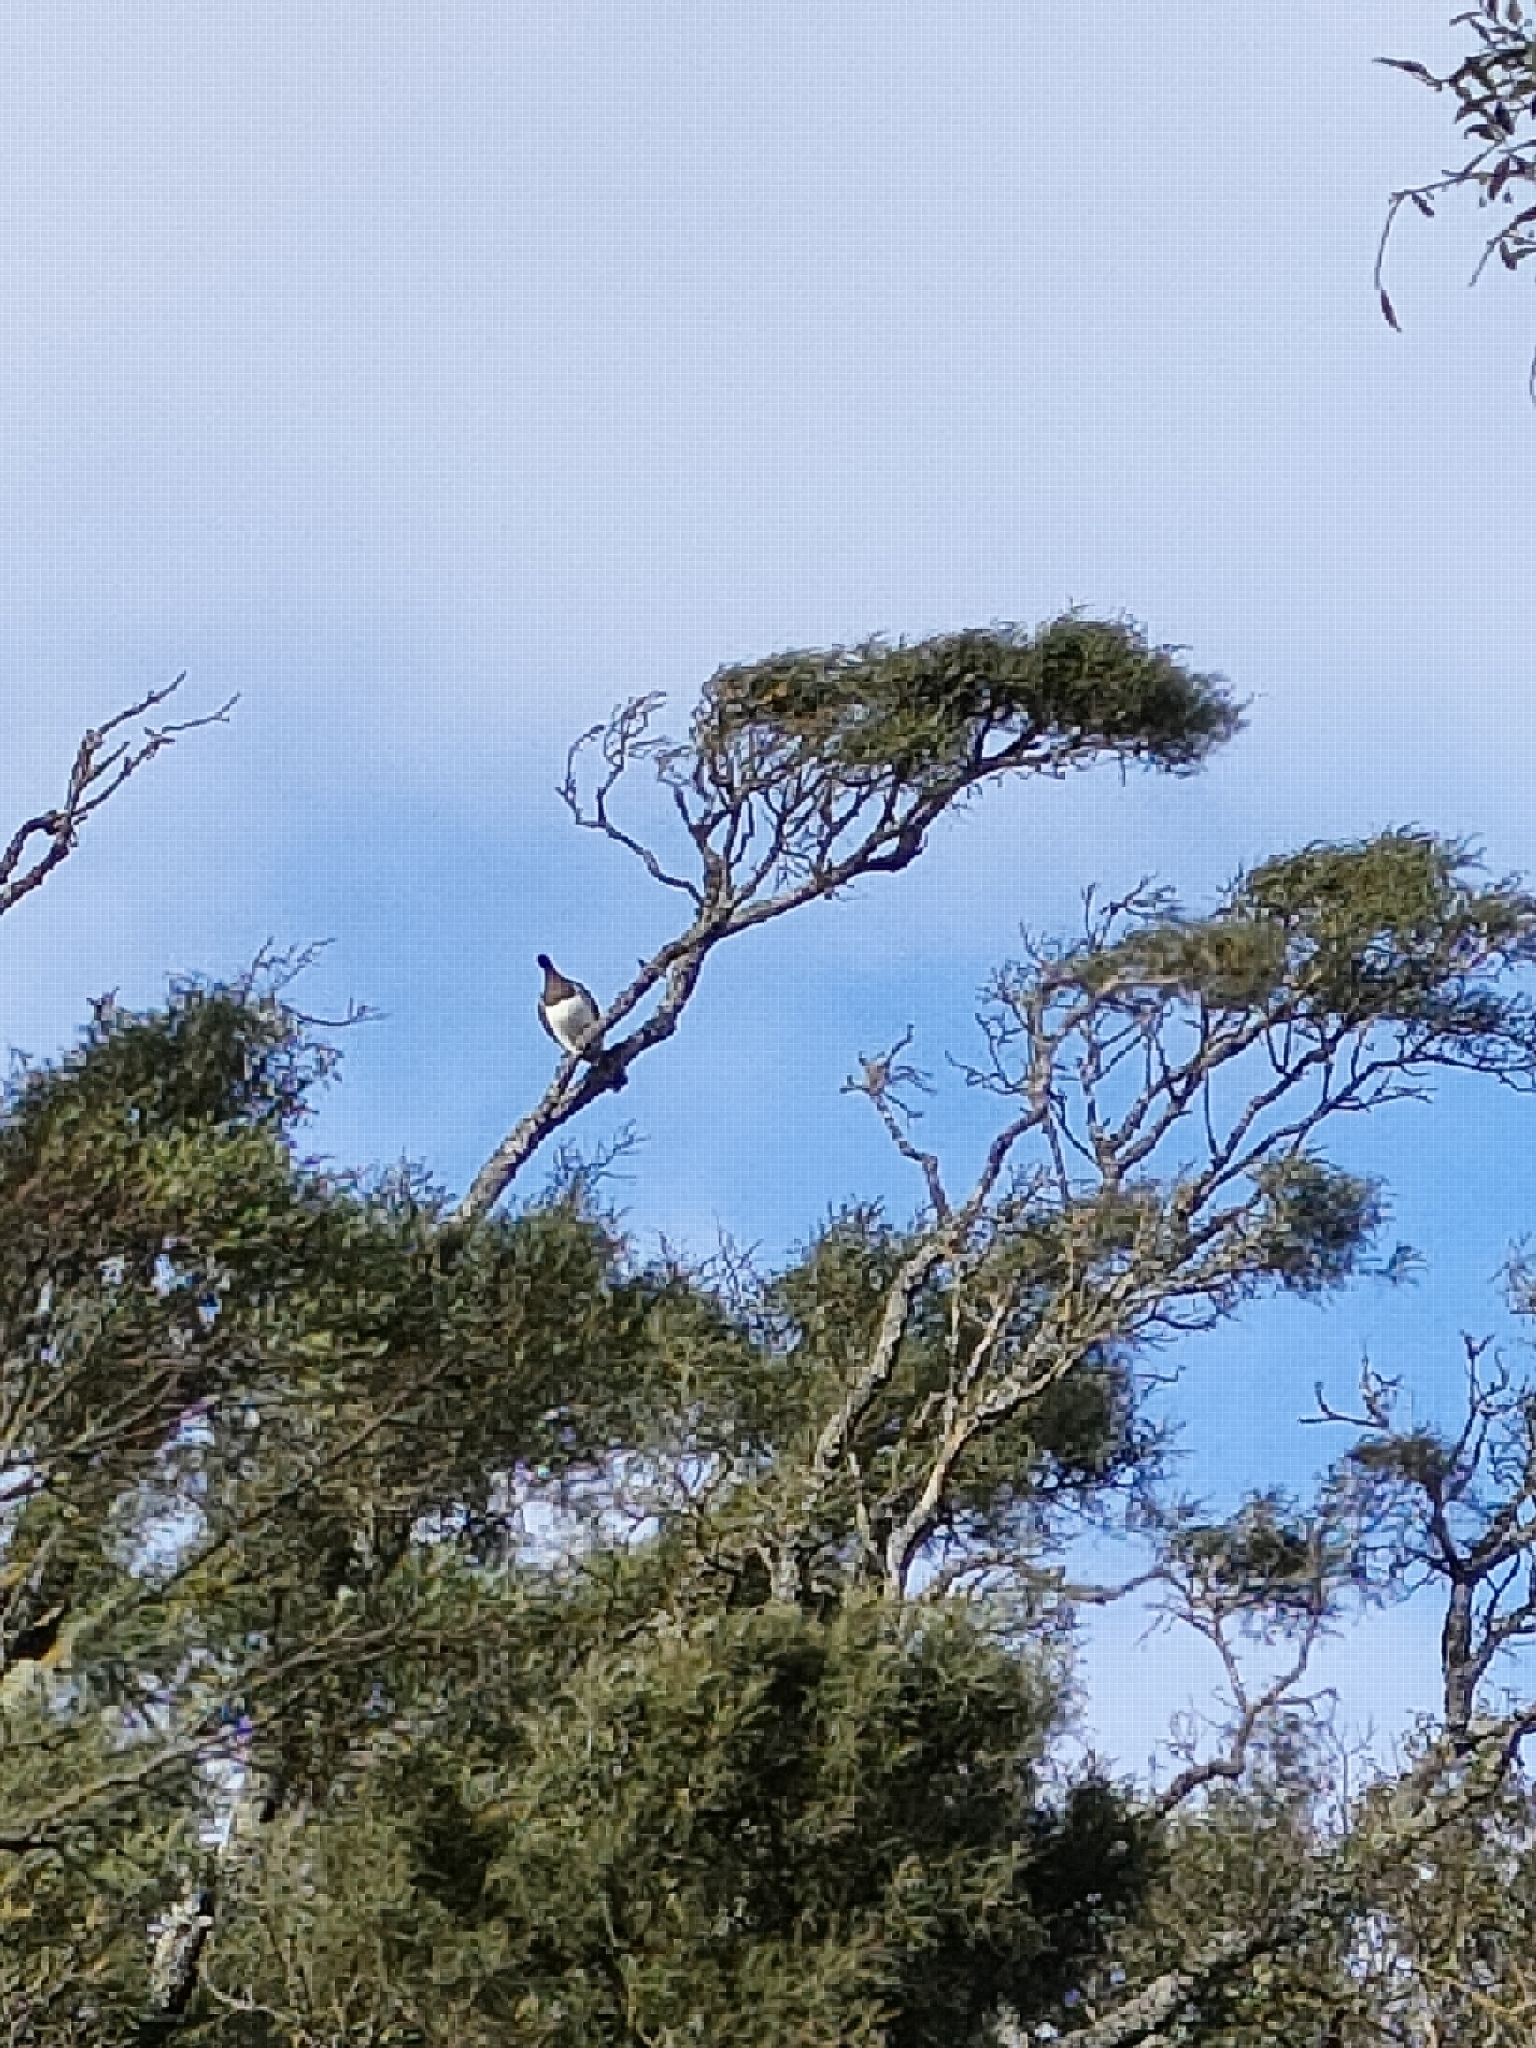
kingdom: Animalia
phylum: Chordata
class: Aves
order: Columbiformes
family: Columbidae
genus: Hemiphaga
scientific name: Hemiphaga novaeseelandiae
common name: New zealand pigeon
